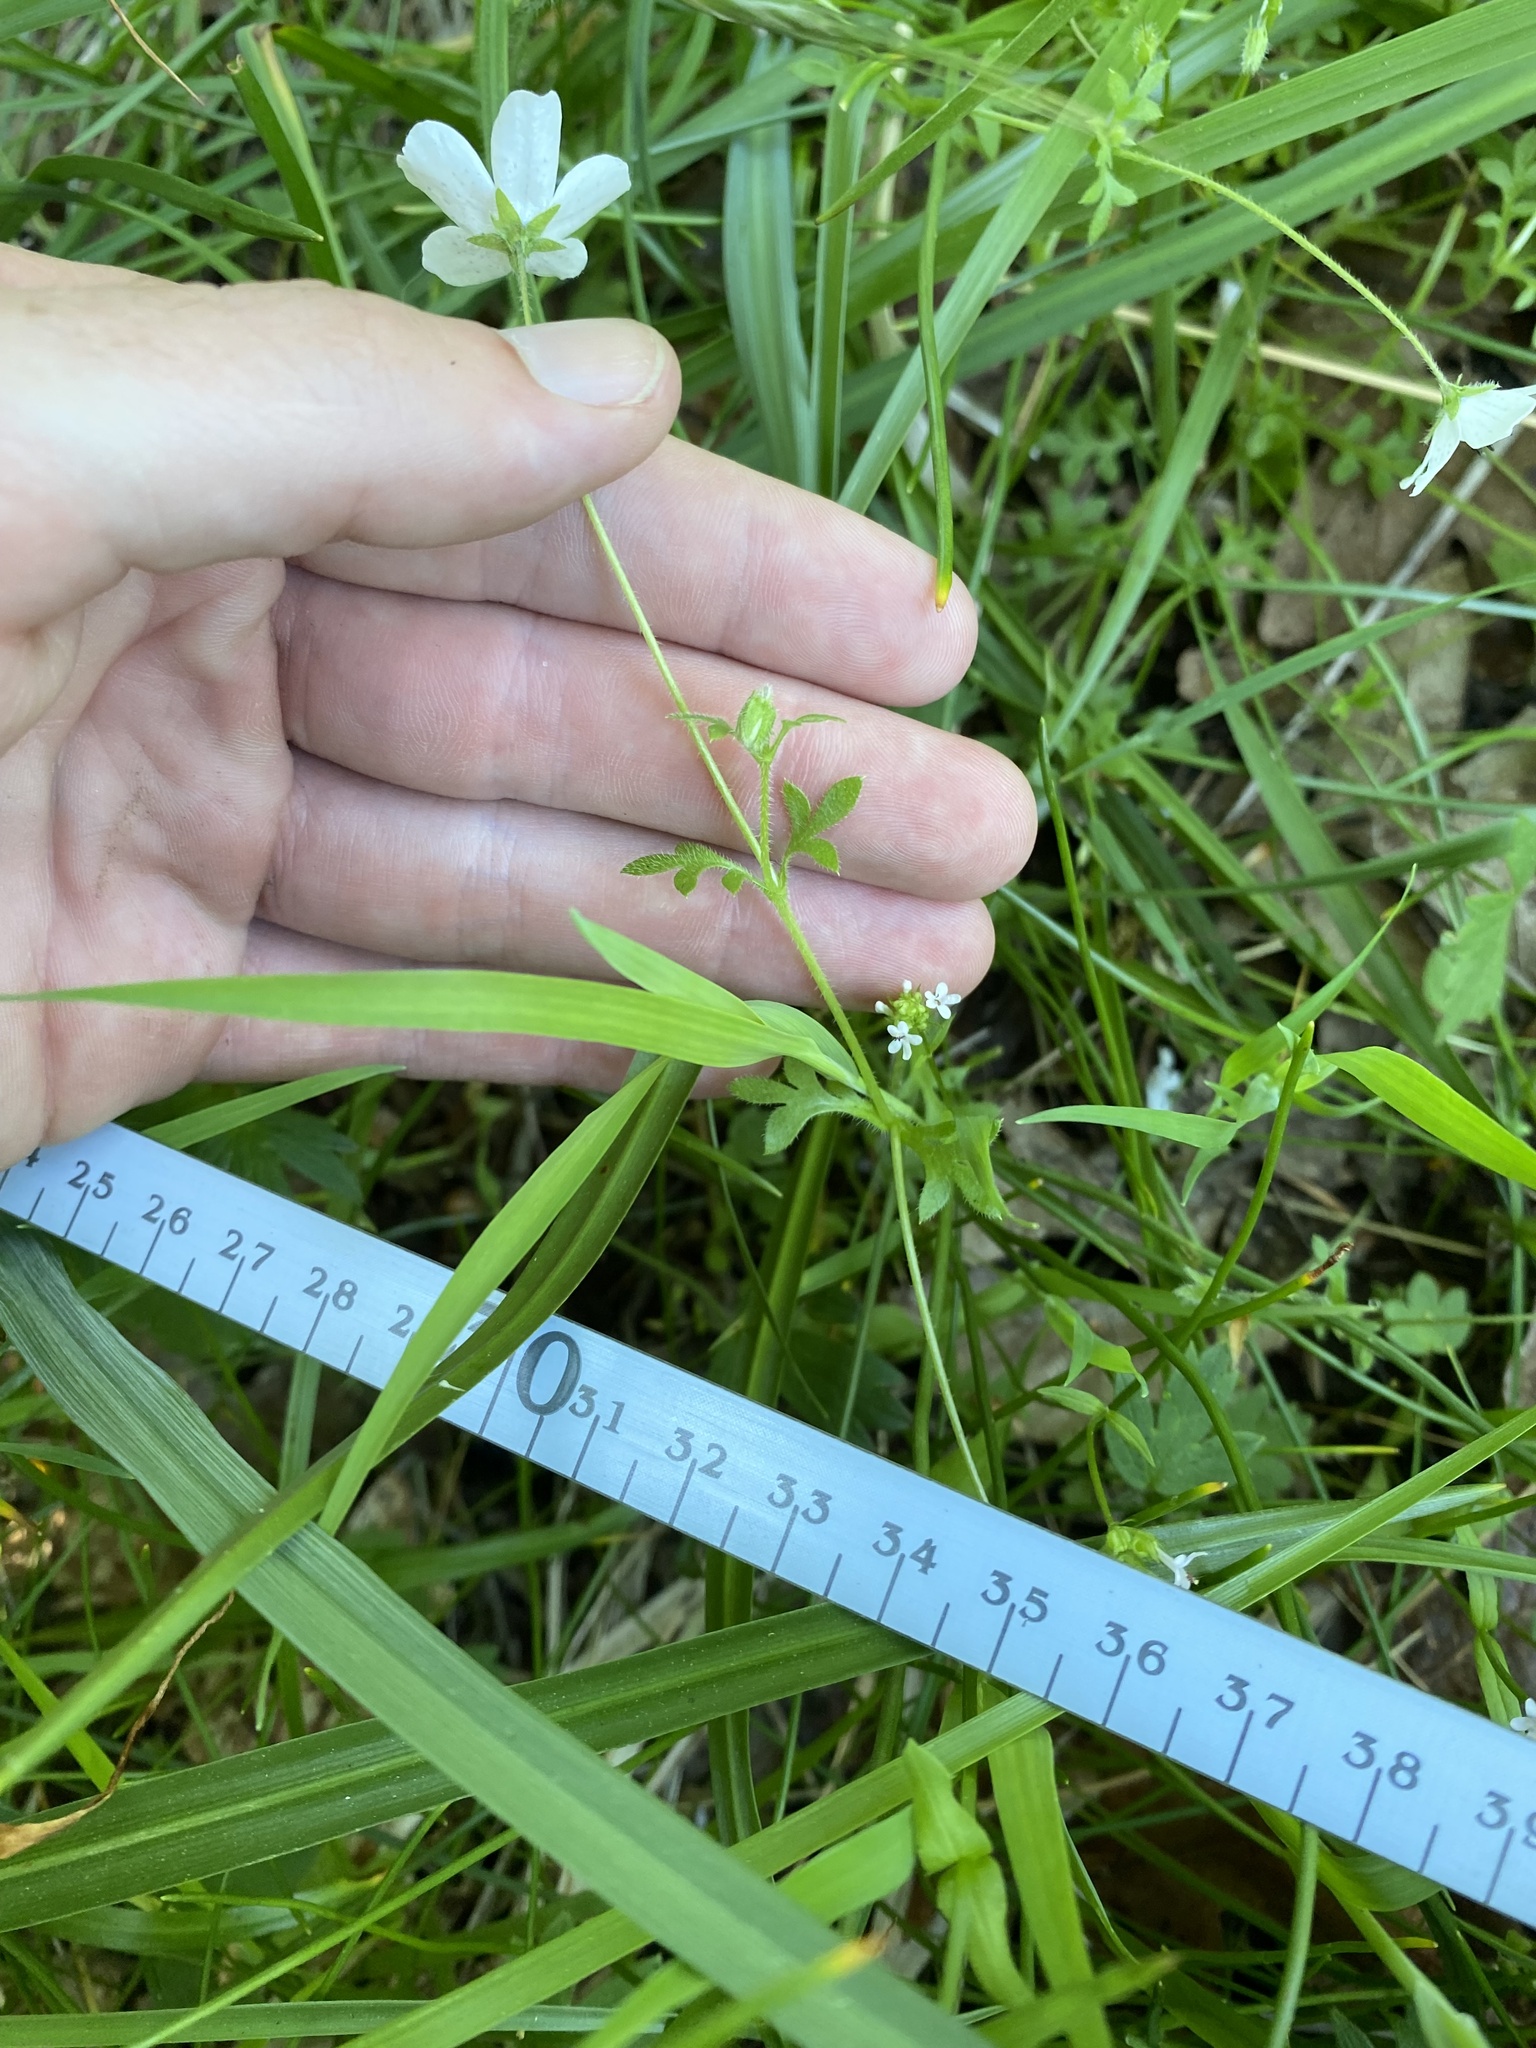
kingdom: Plantae
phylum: Tracheophyta
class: Magnoliopsida
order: Boraginales
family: Hydrophyllaceae
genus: Nemophila
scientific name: Nemophila menziesii
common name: Baby's-blue-eyes
